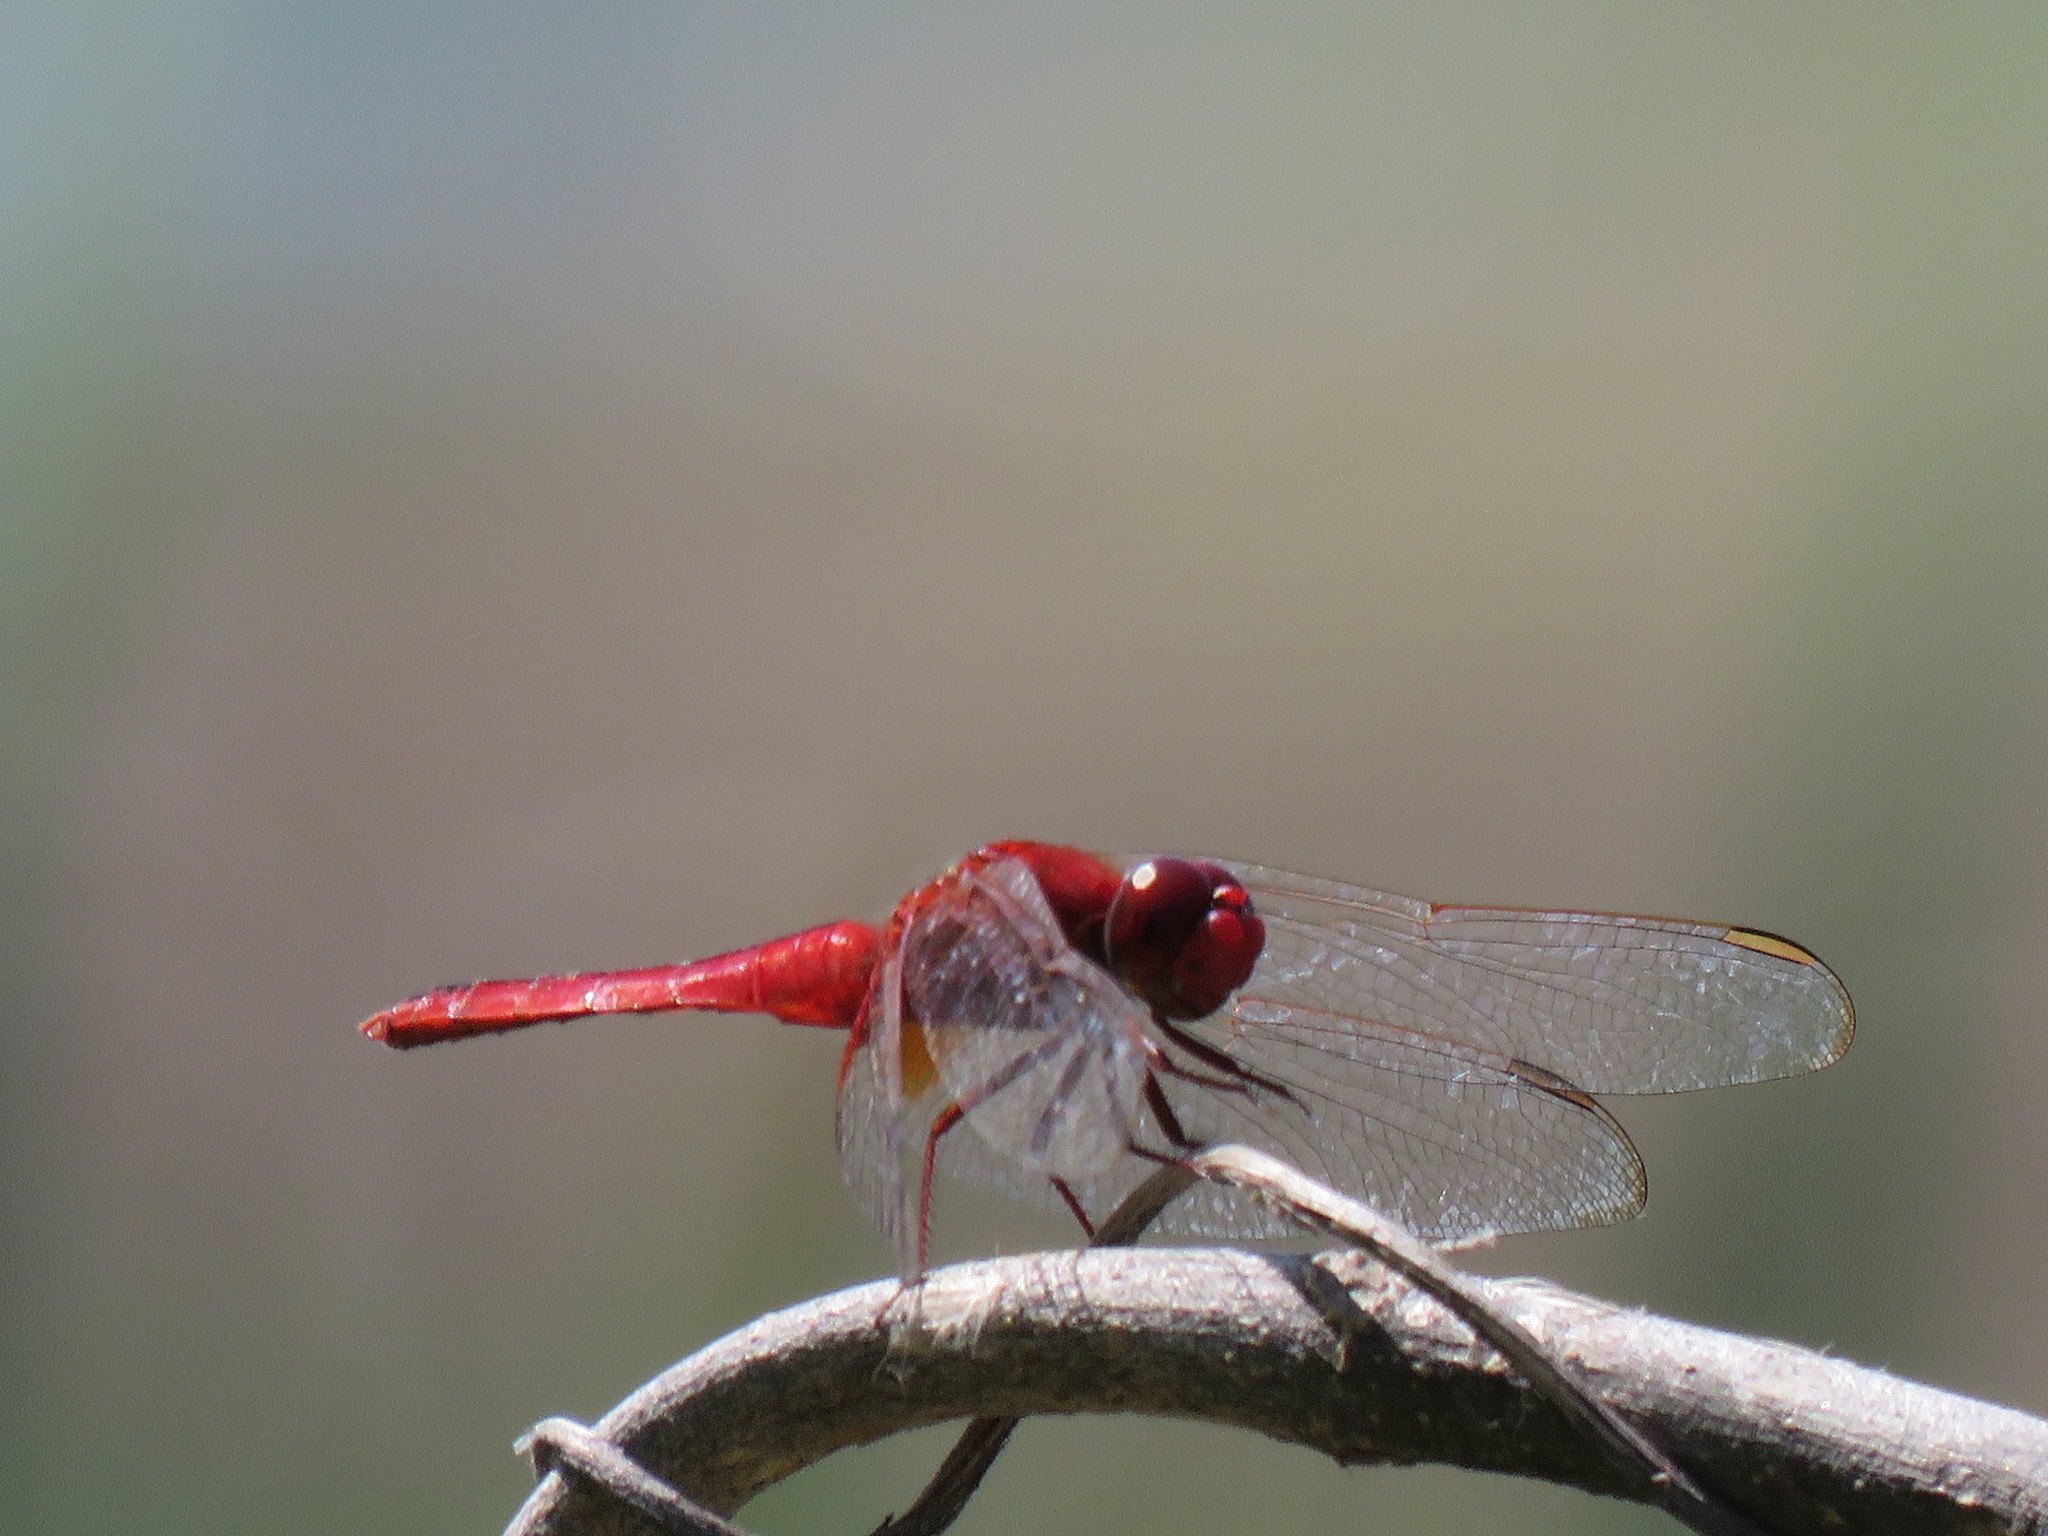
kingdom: Animalia
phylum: Arthropoda
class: Insecta
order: Odonata
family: Libellulidae
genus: Crocothemis
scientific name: Crocothemis servilia
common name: Scarlet skimmer
